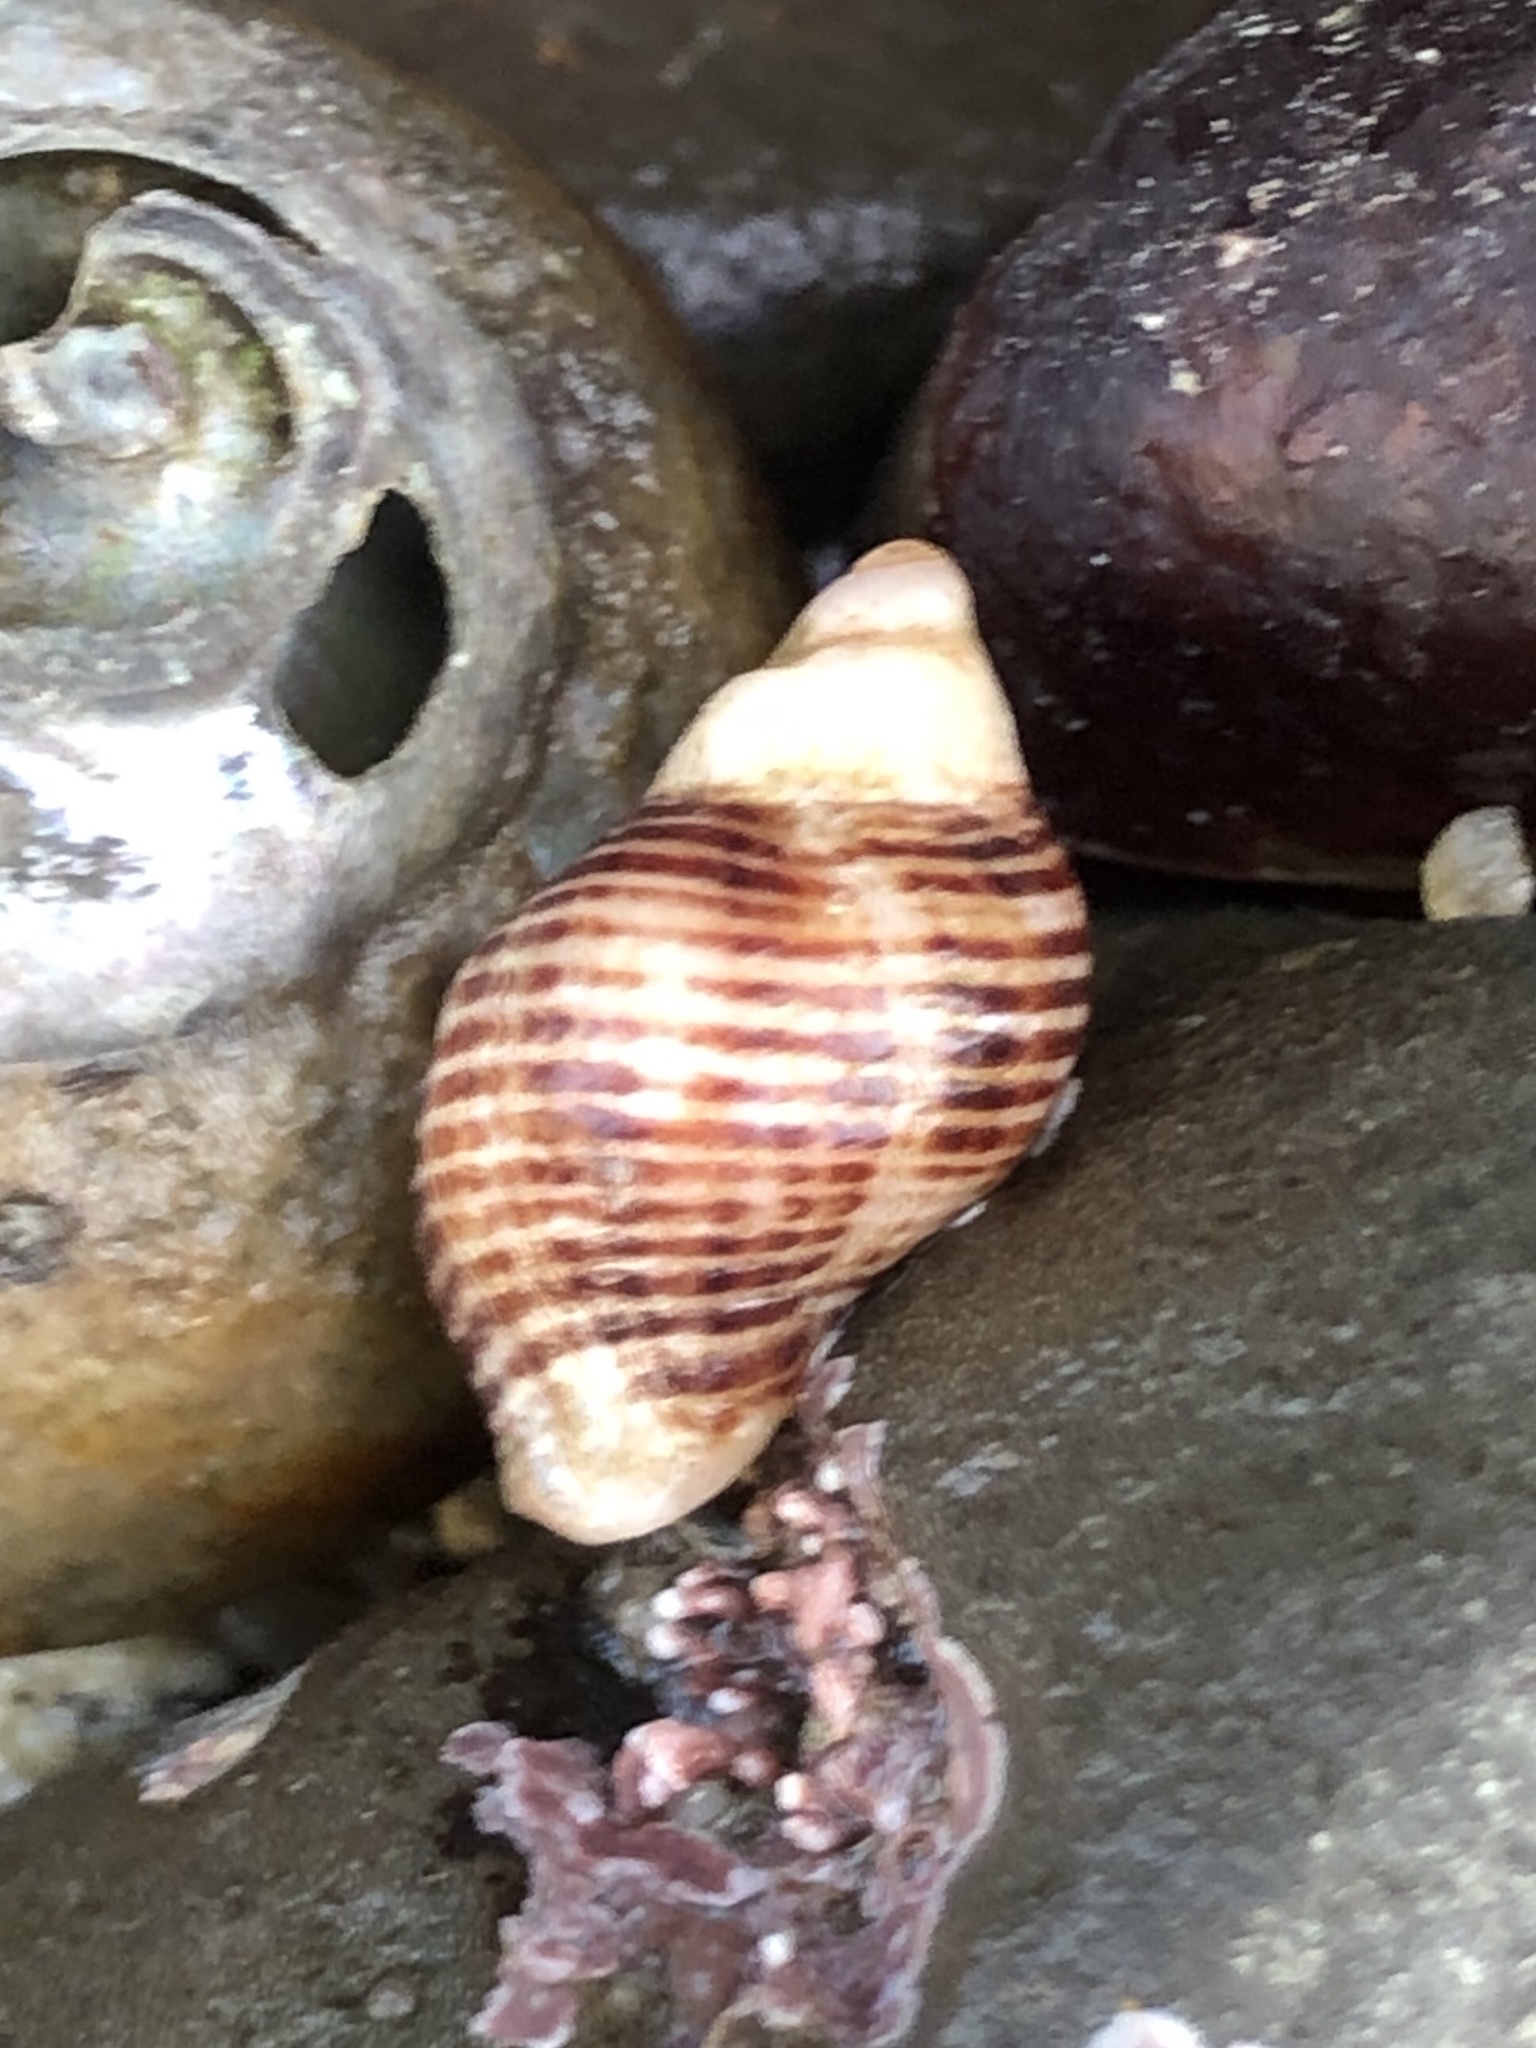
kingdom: Animalia
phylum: Mollusca
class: Gastropoda
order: Neogastropoda
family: Muricidae
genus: Paciocinebrina
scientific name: Paciocinebrina lurida
